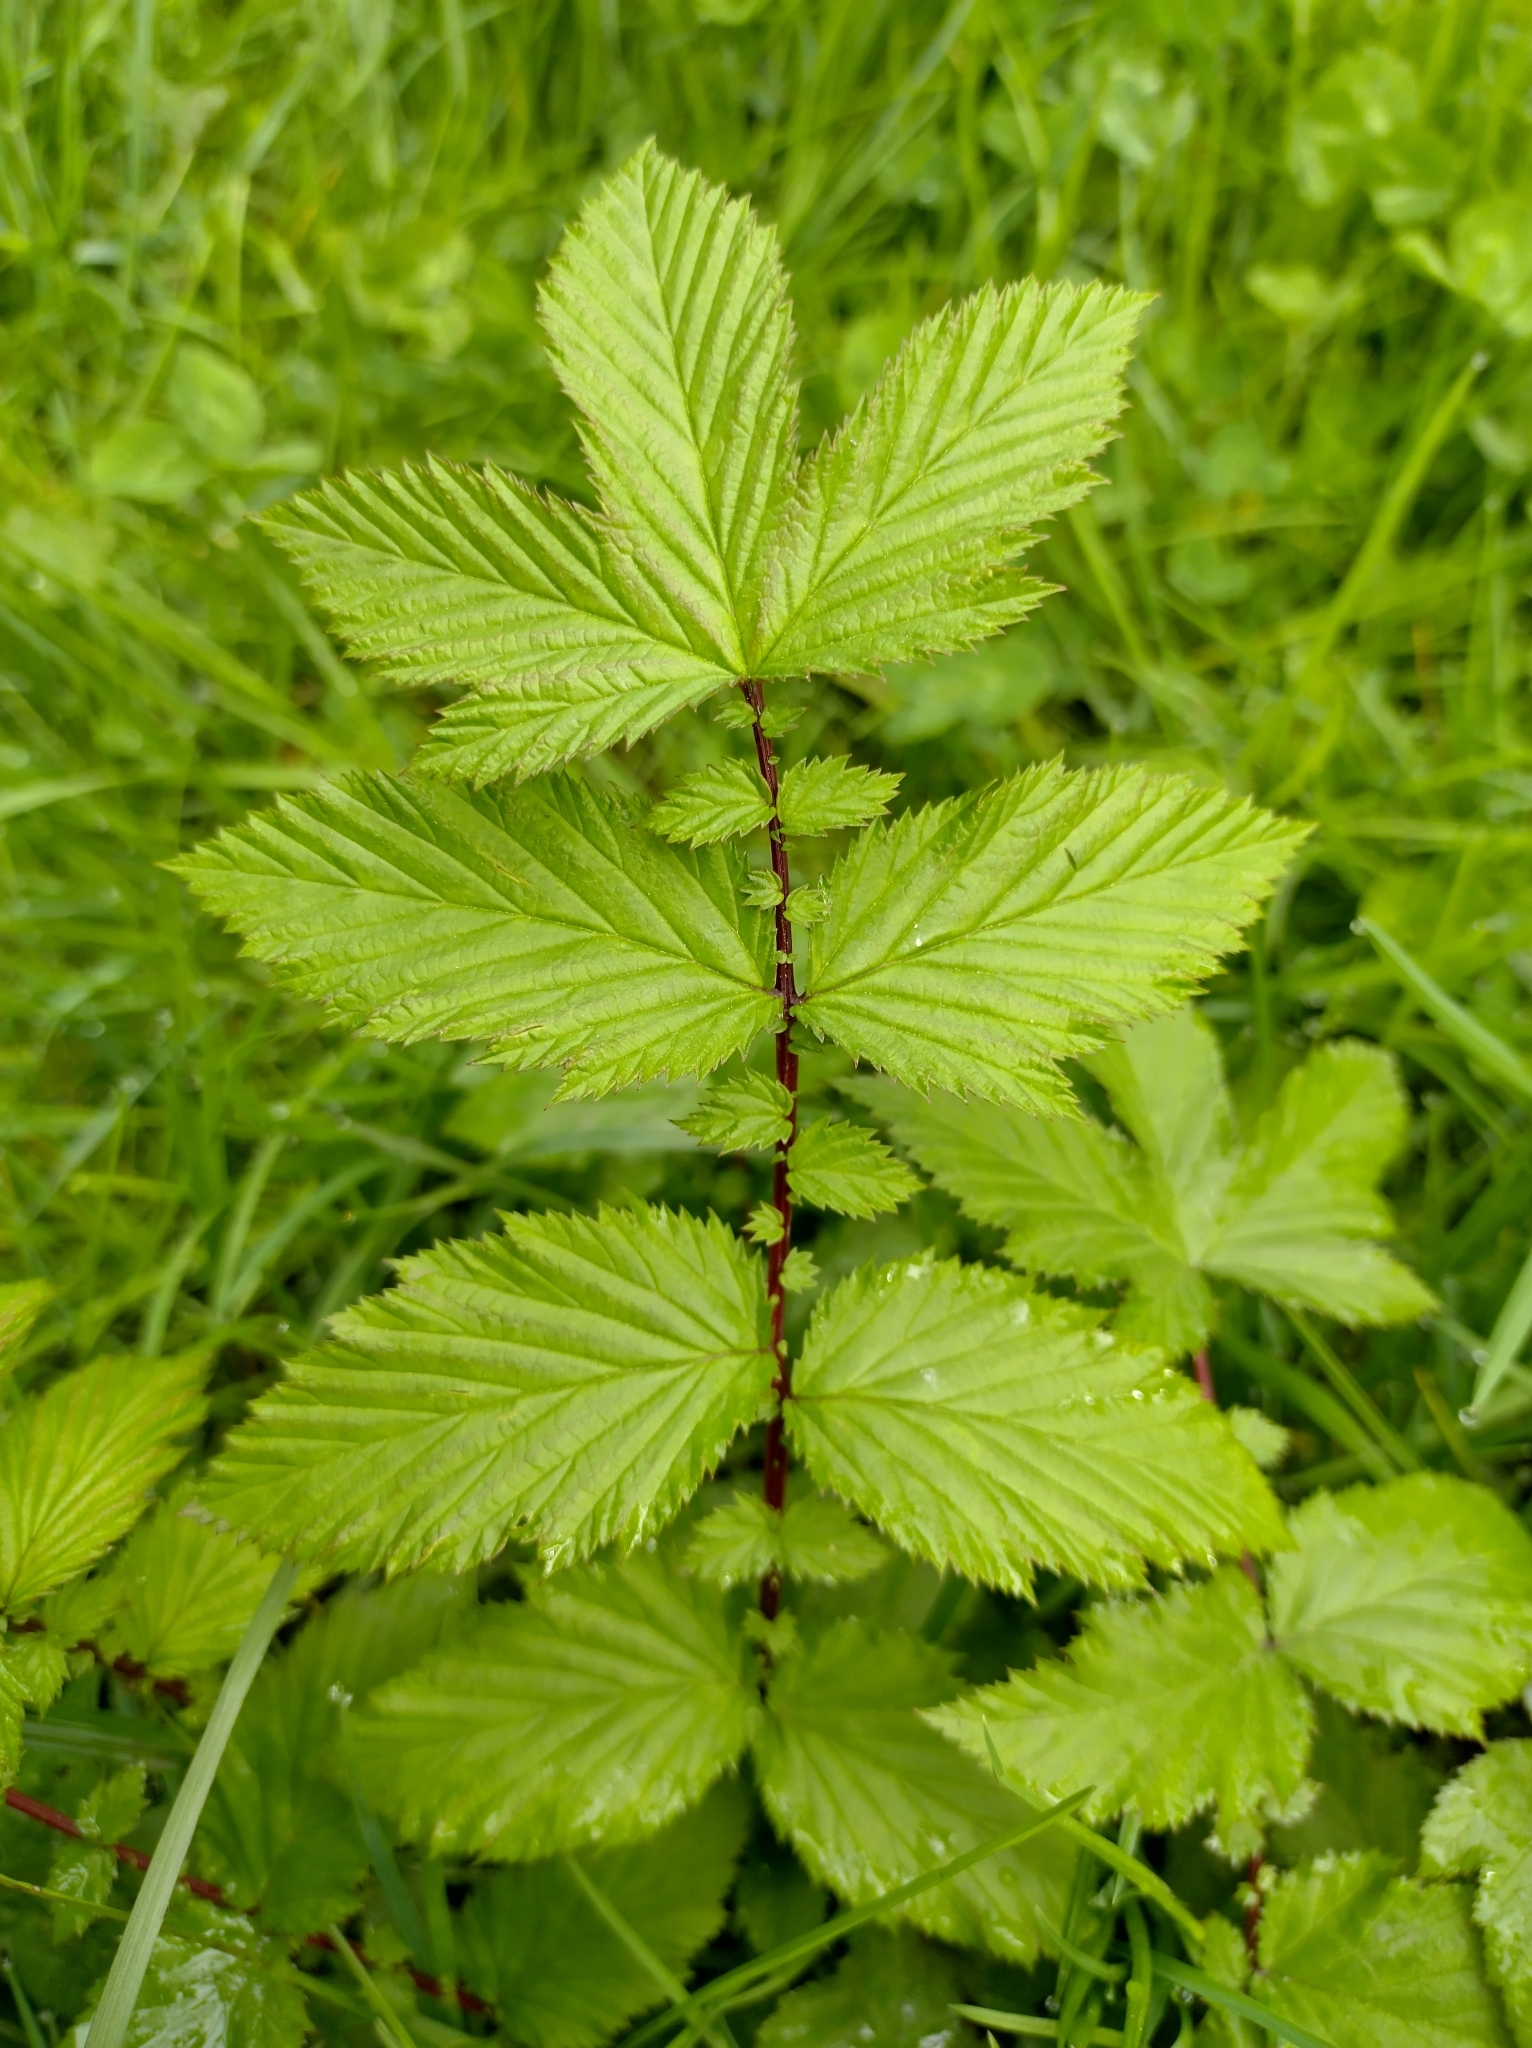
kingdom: Plantae
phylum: Tracheophyta
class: Magnoliopsida
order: Rosales
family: Rosaceae
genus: Filipendula
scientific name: Filipendula ulmaria
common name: Meadowsweet
